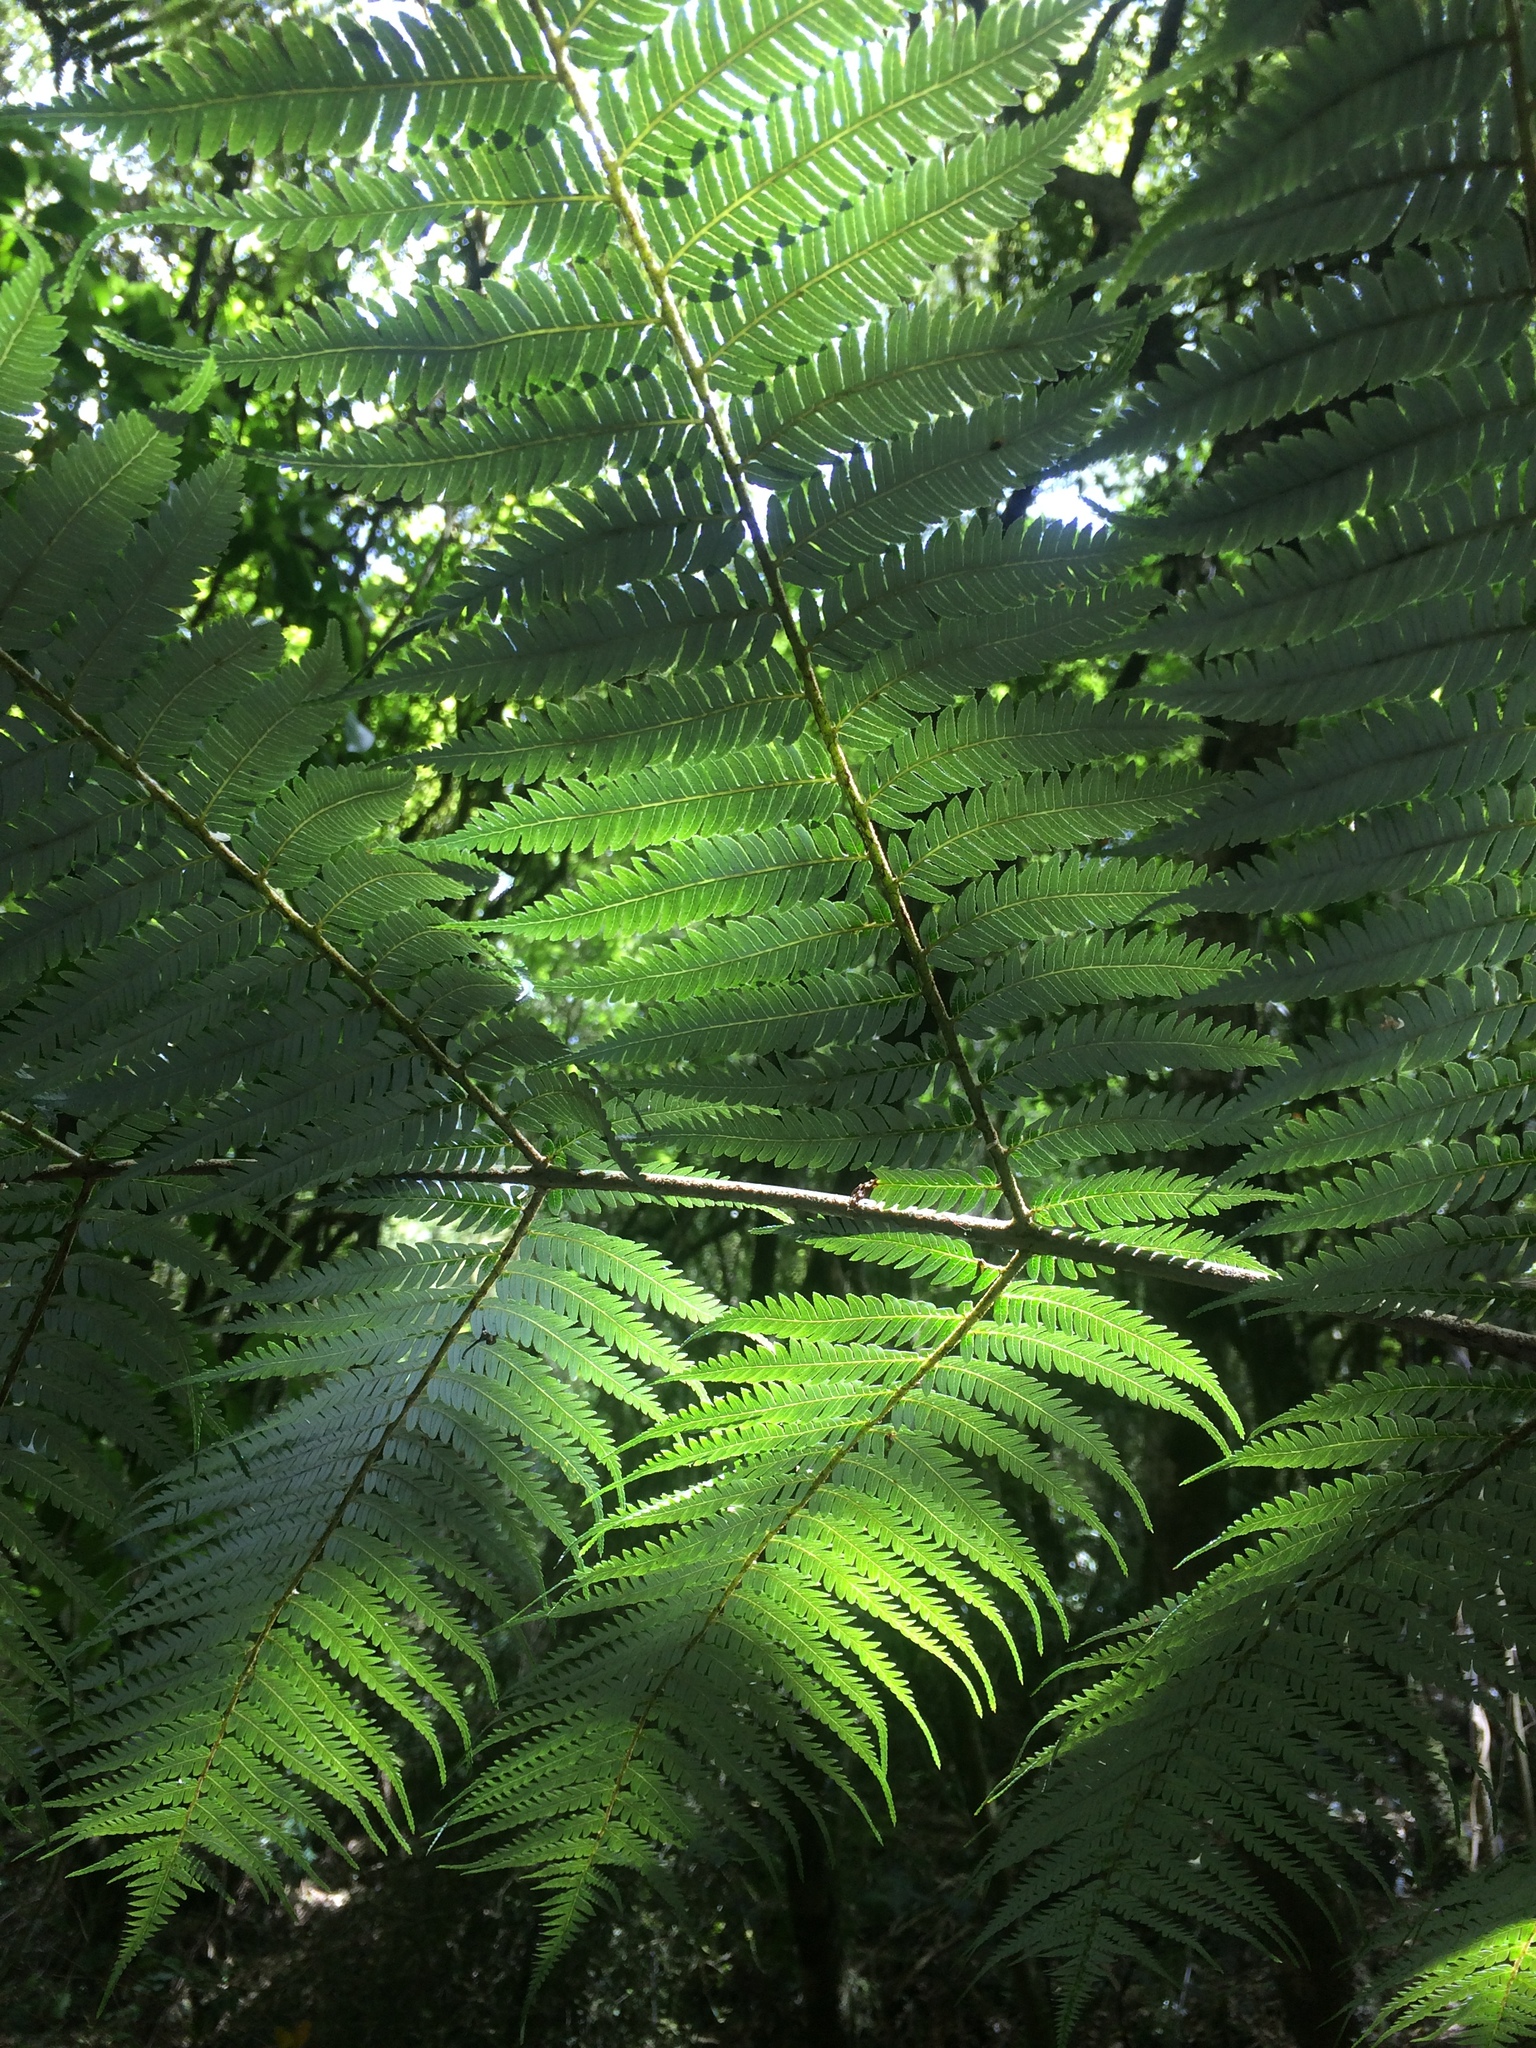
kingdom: Plantae
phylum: Tracheophyta
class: Polypodiopsida
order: Cyatheales
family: Cyatheaceae
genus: Alsophila
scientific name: Alsophila dealbata
